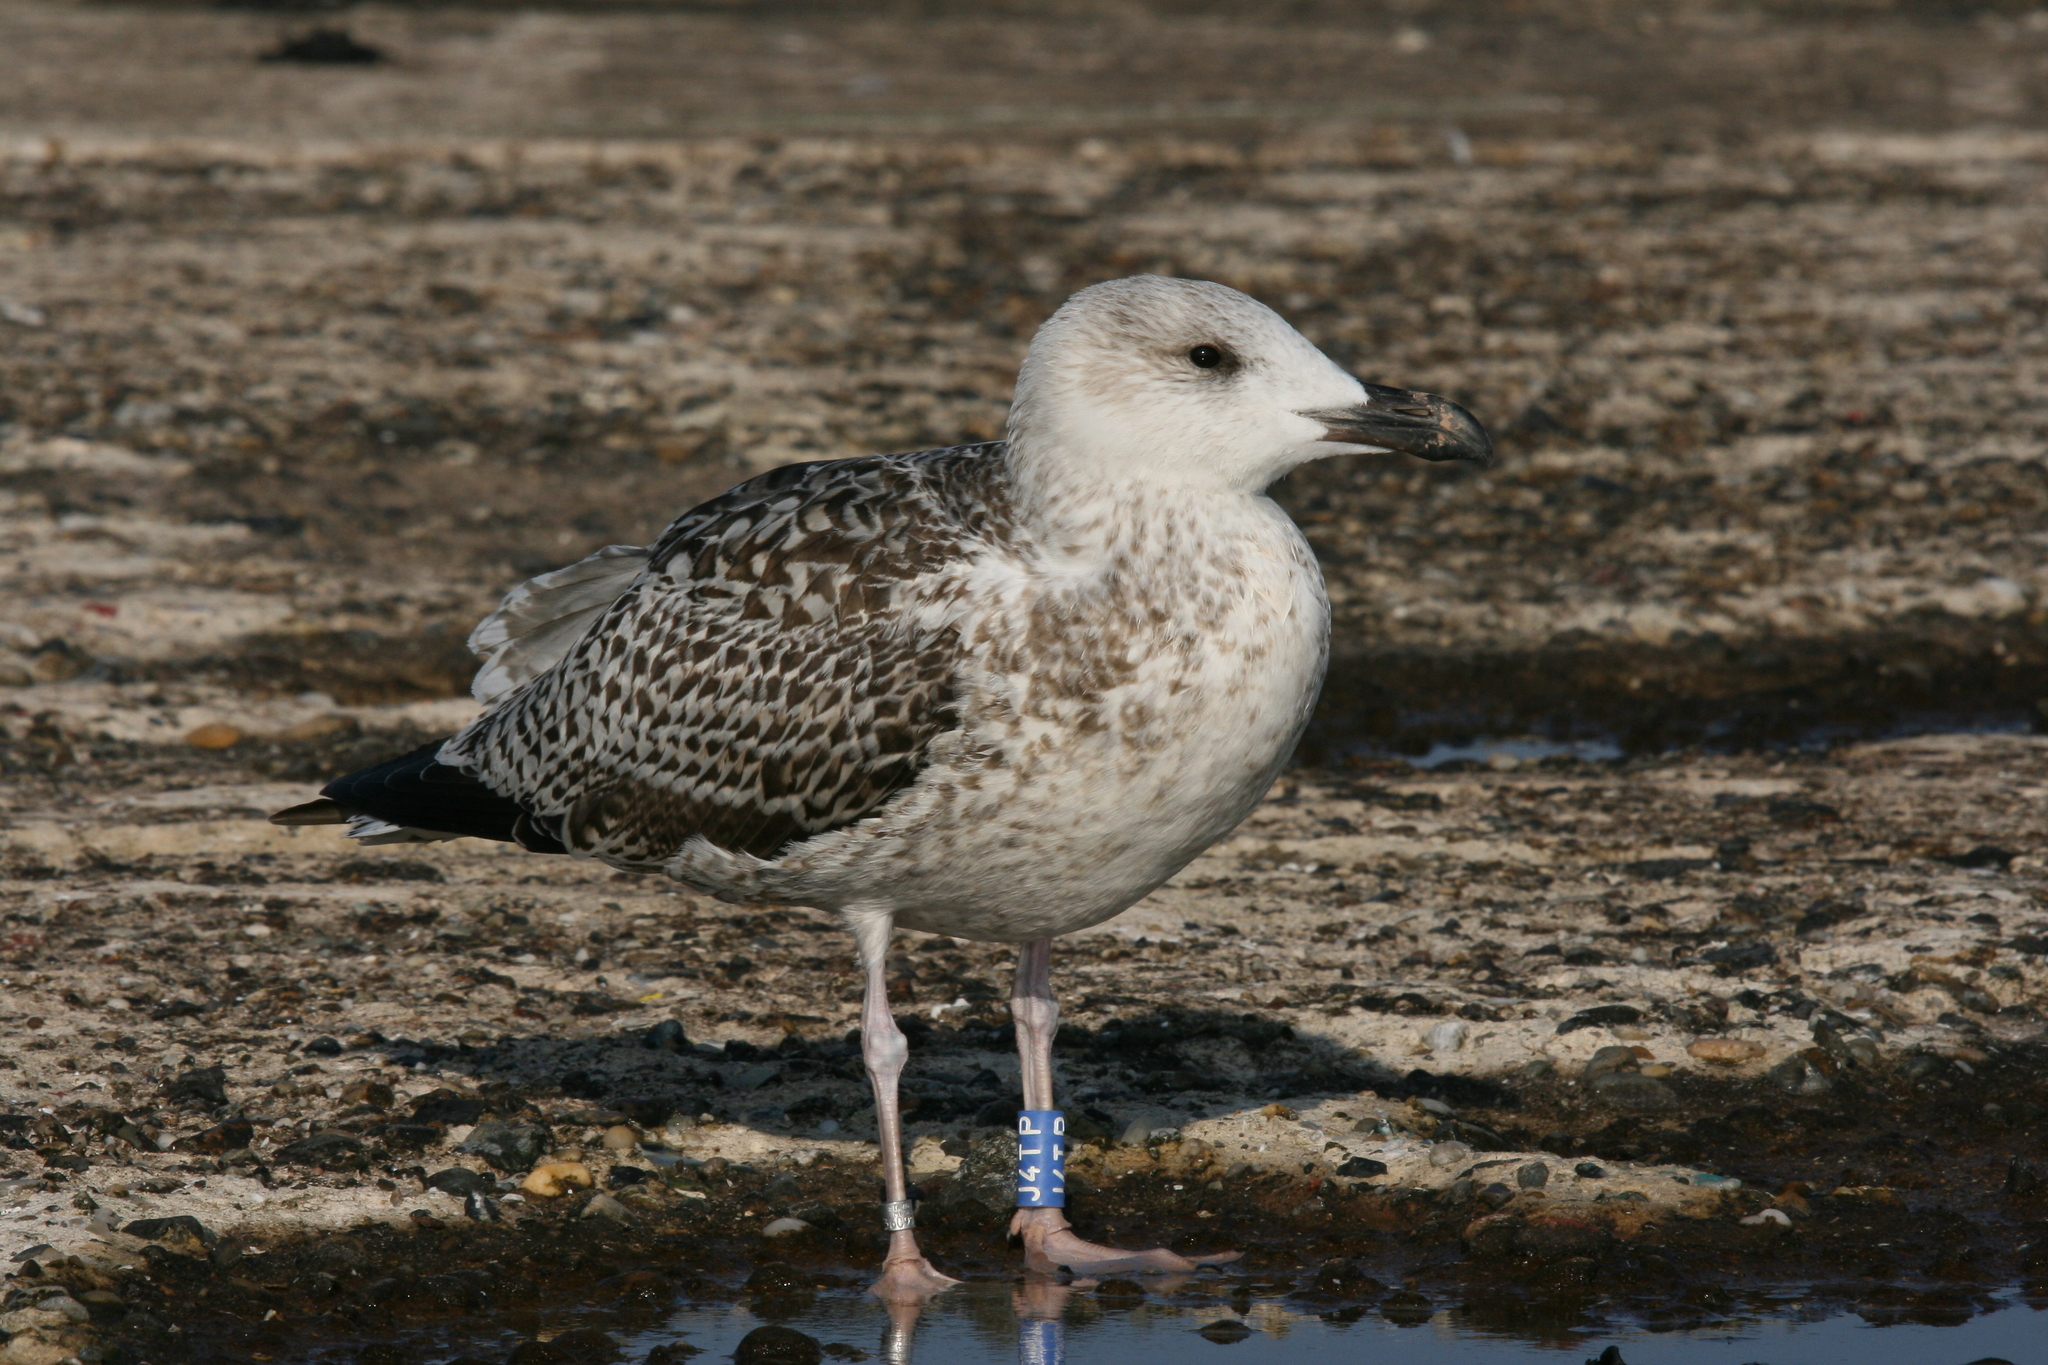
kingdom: Animalia
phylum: Chordata
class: Aves
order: Charadriiformes
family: Laridae
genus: Larus
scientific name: Larus marinus
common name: Great black-backed gull
